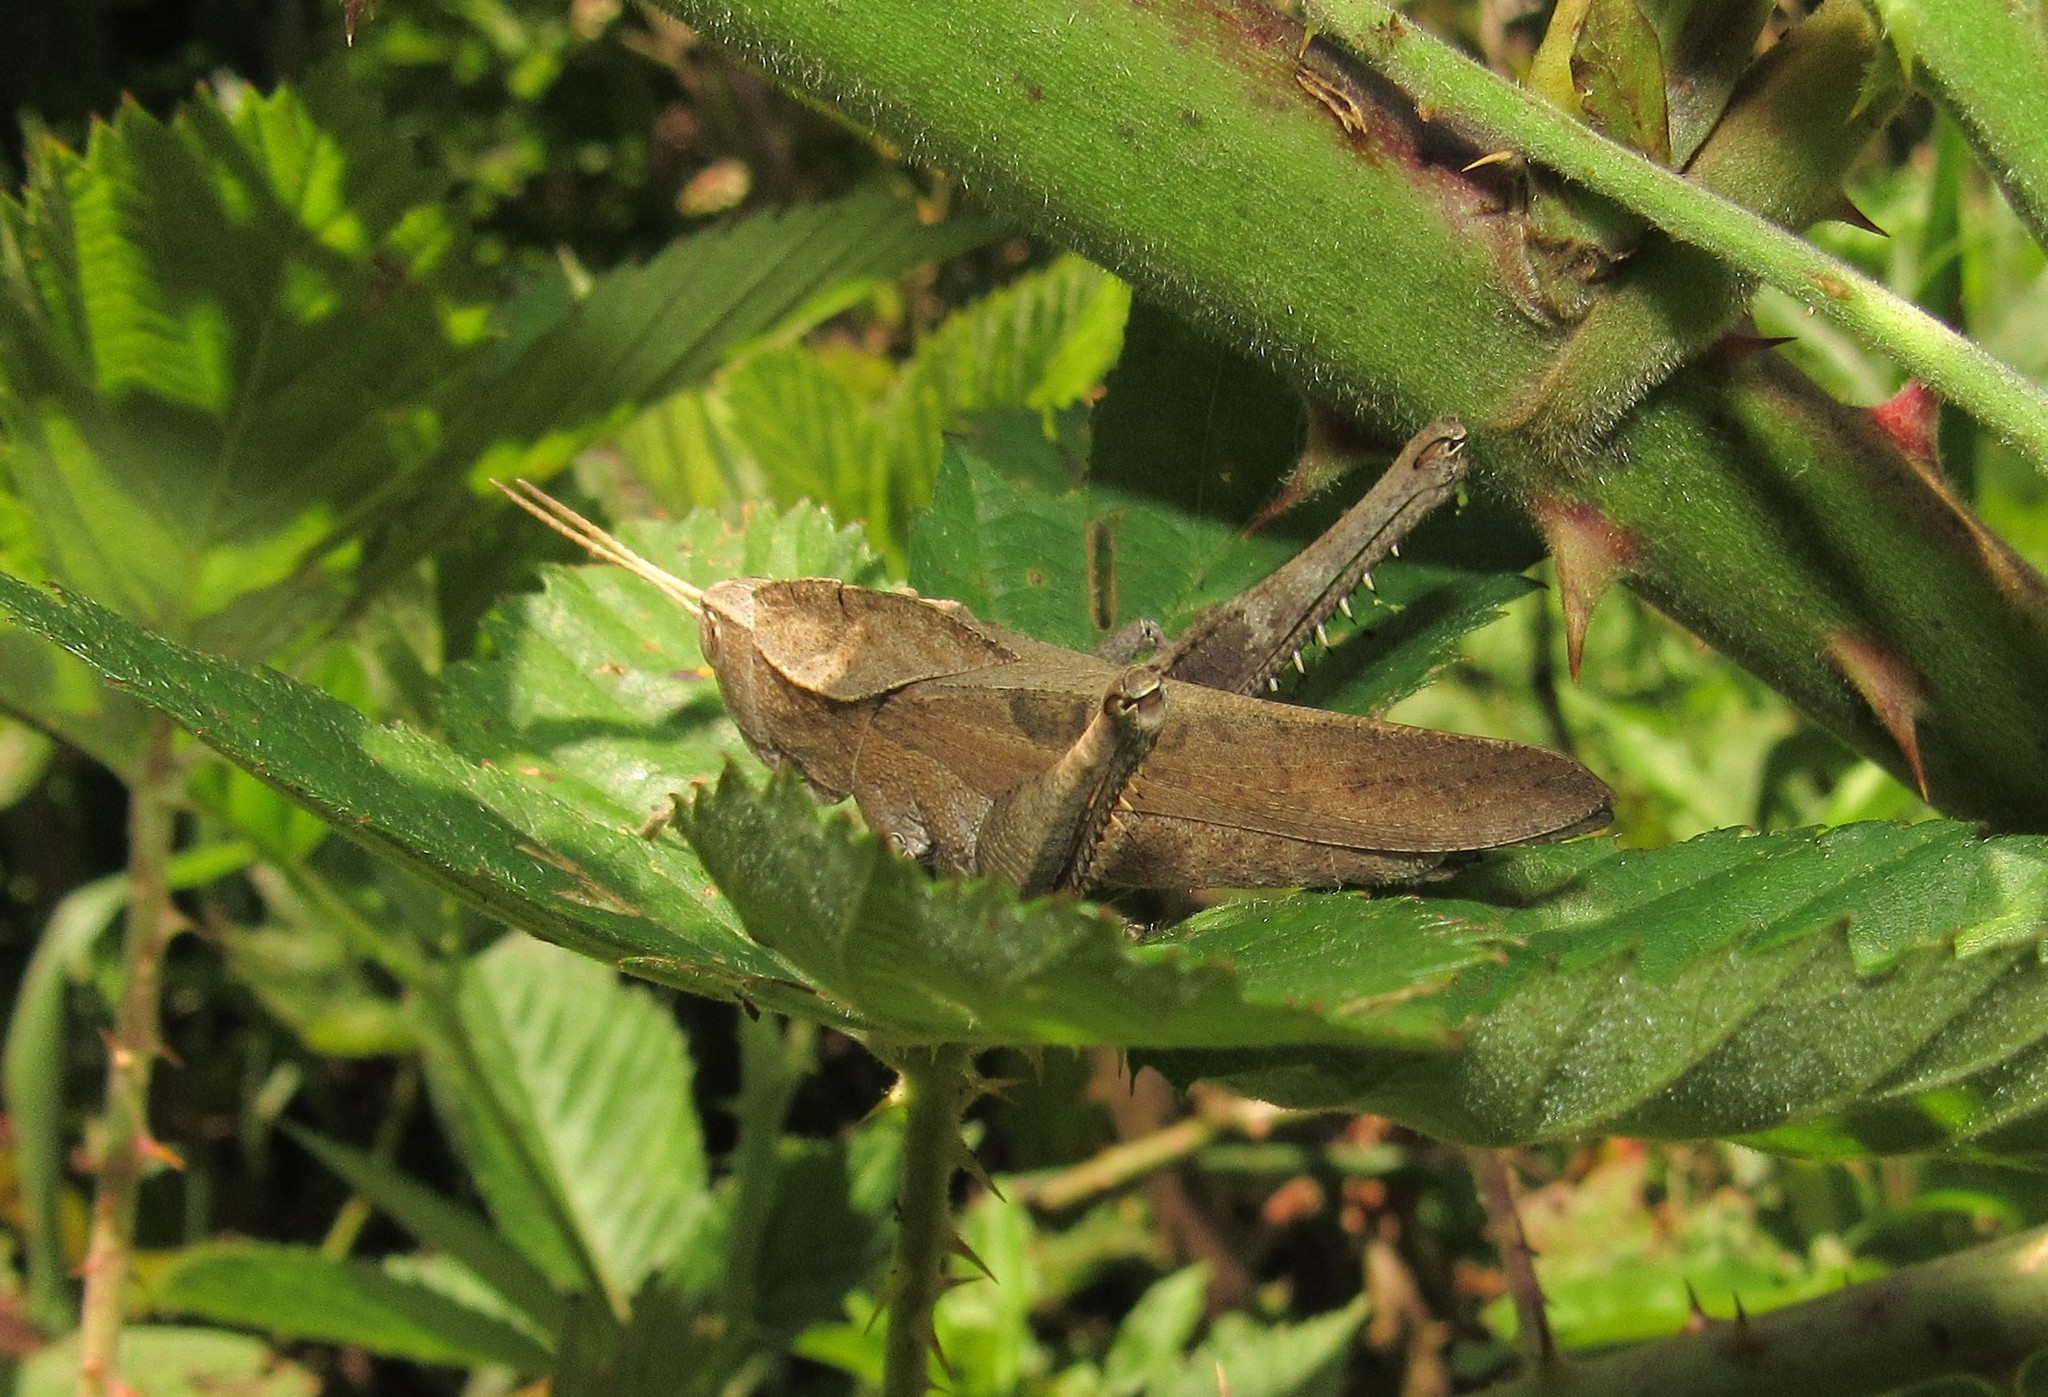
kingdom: Animalia
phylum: Arthropoda
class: Insecta
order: Orthoptera
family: Romaleidae
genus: Xyleus
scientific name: Xyleus discoideus
